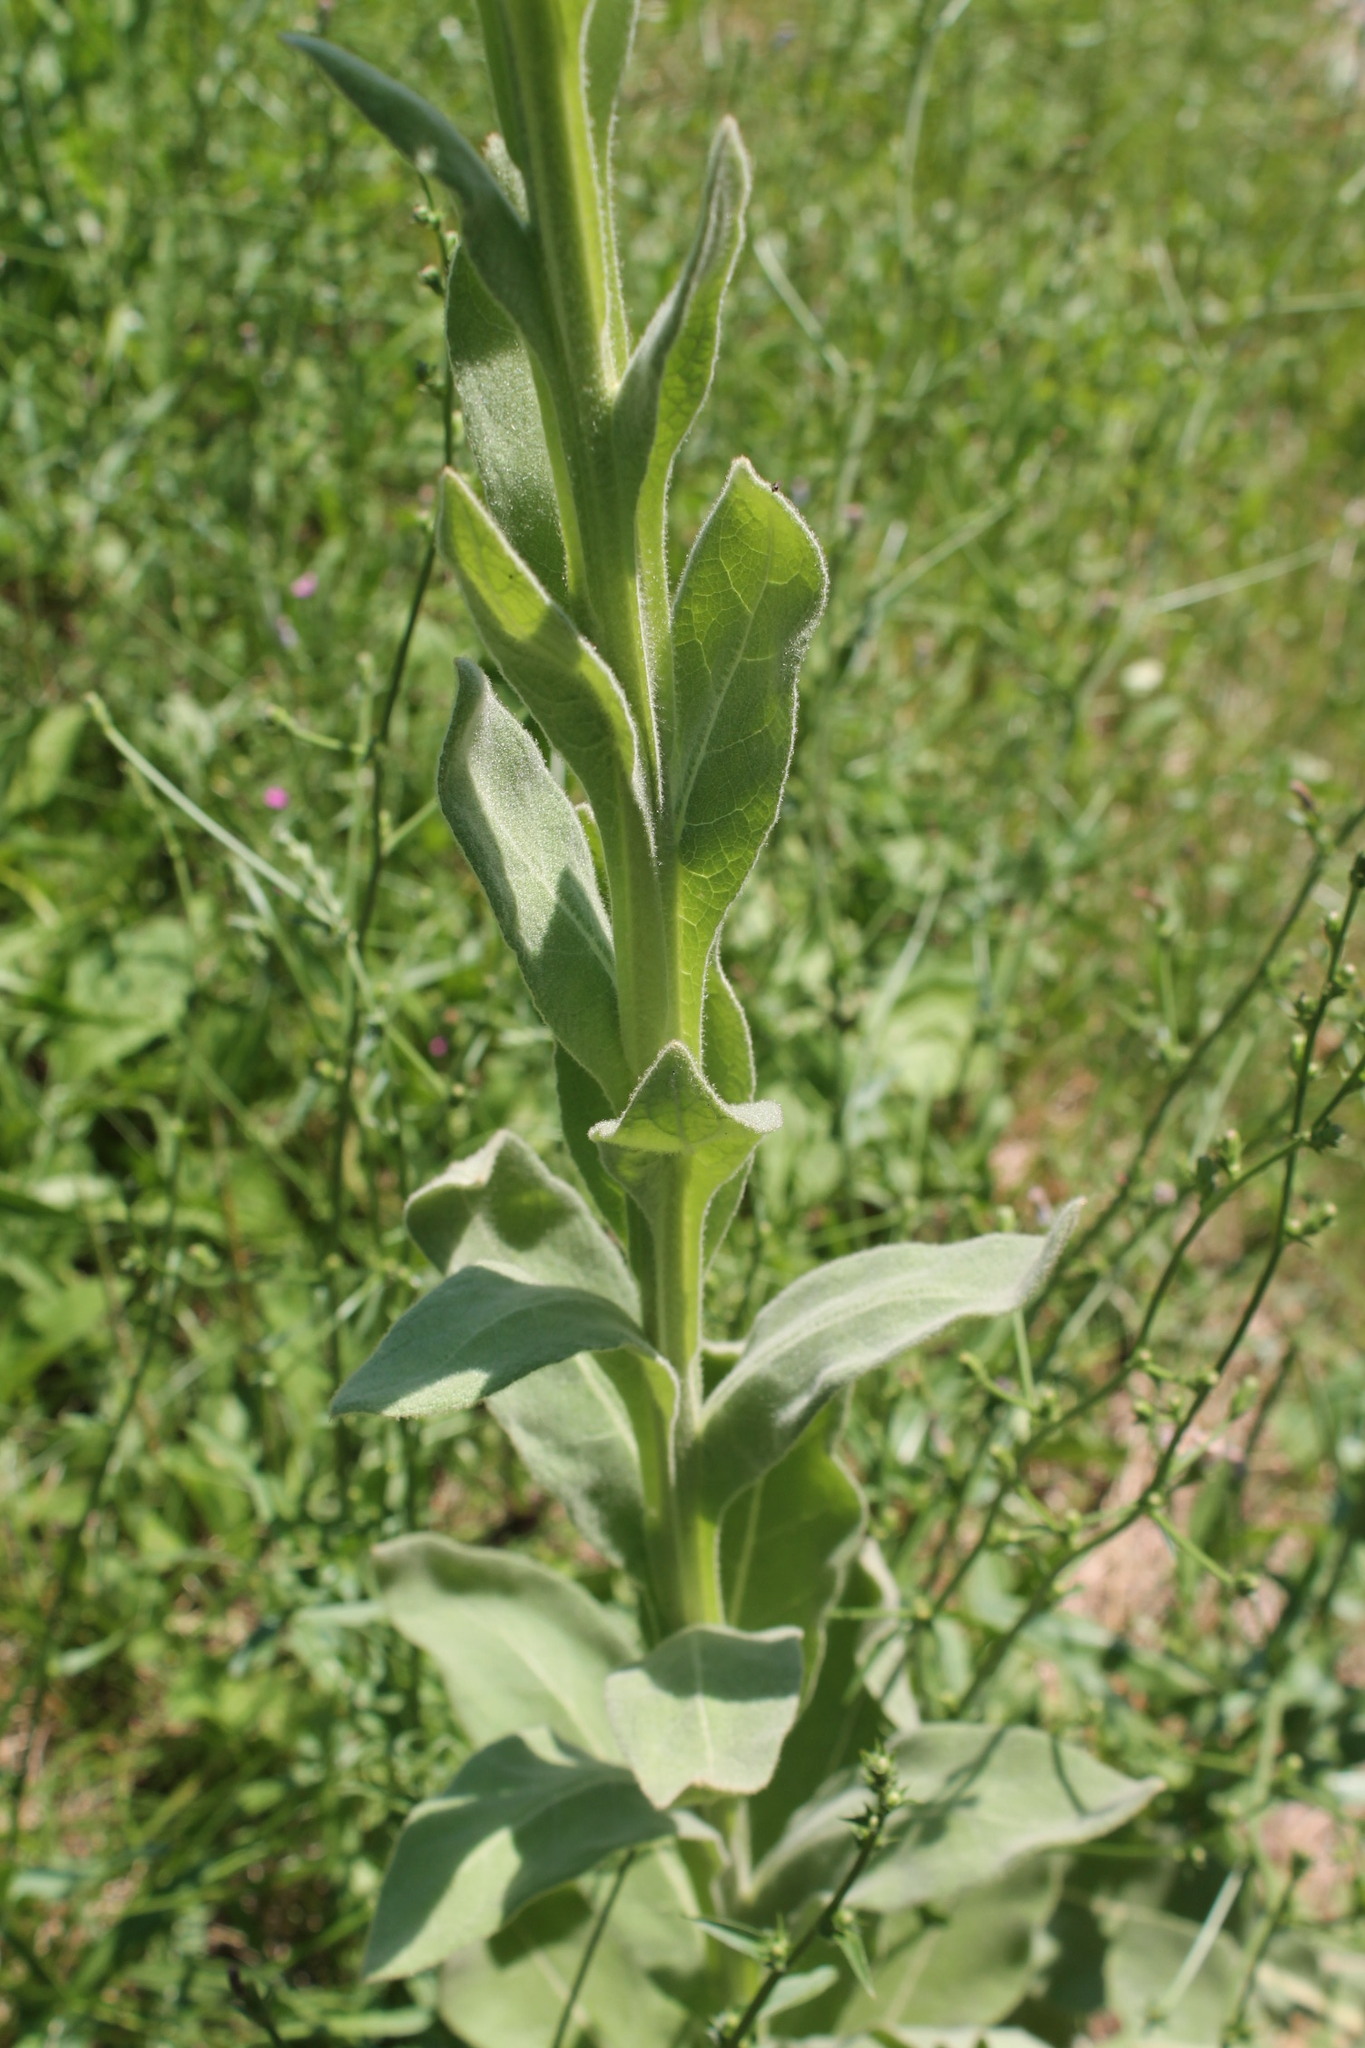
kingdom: Plantae
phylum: Tracheophyta
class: Magnoliopsida
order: Lamiales
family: Scrophulariaceae
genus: Verbascum
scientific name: Verbascum thapsus
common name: Common mullein
